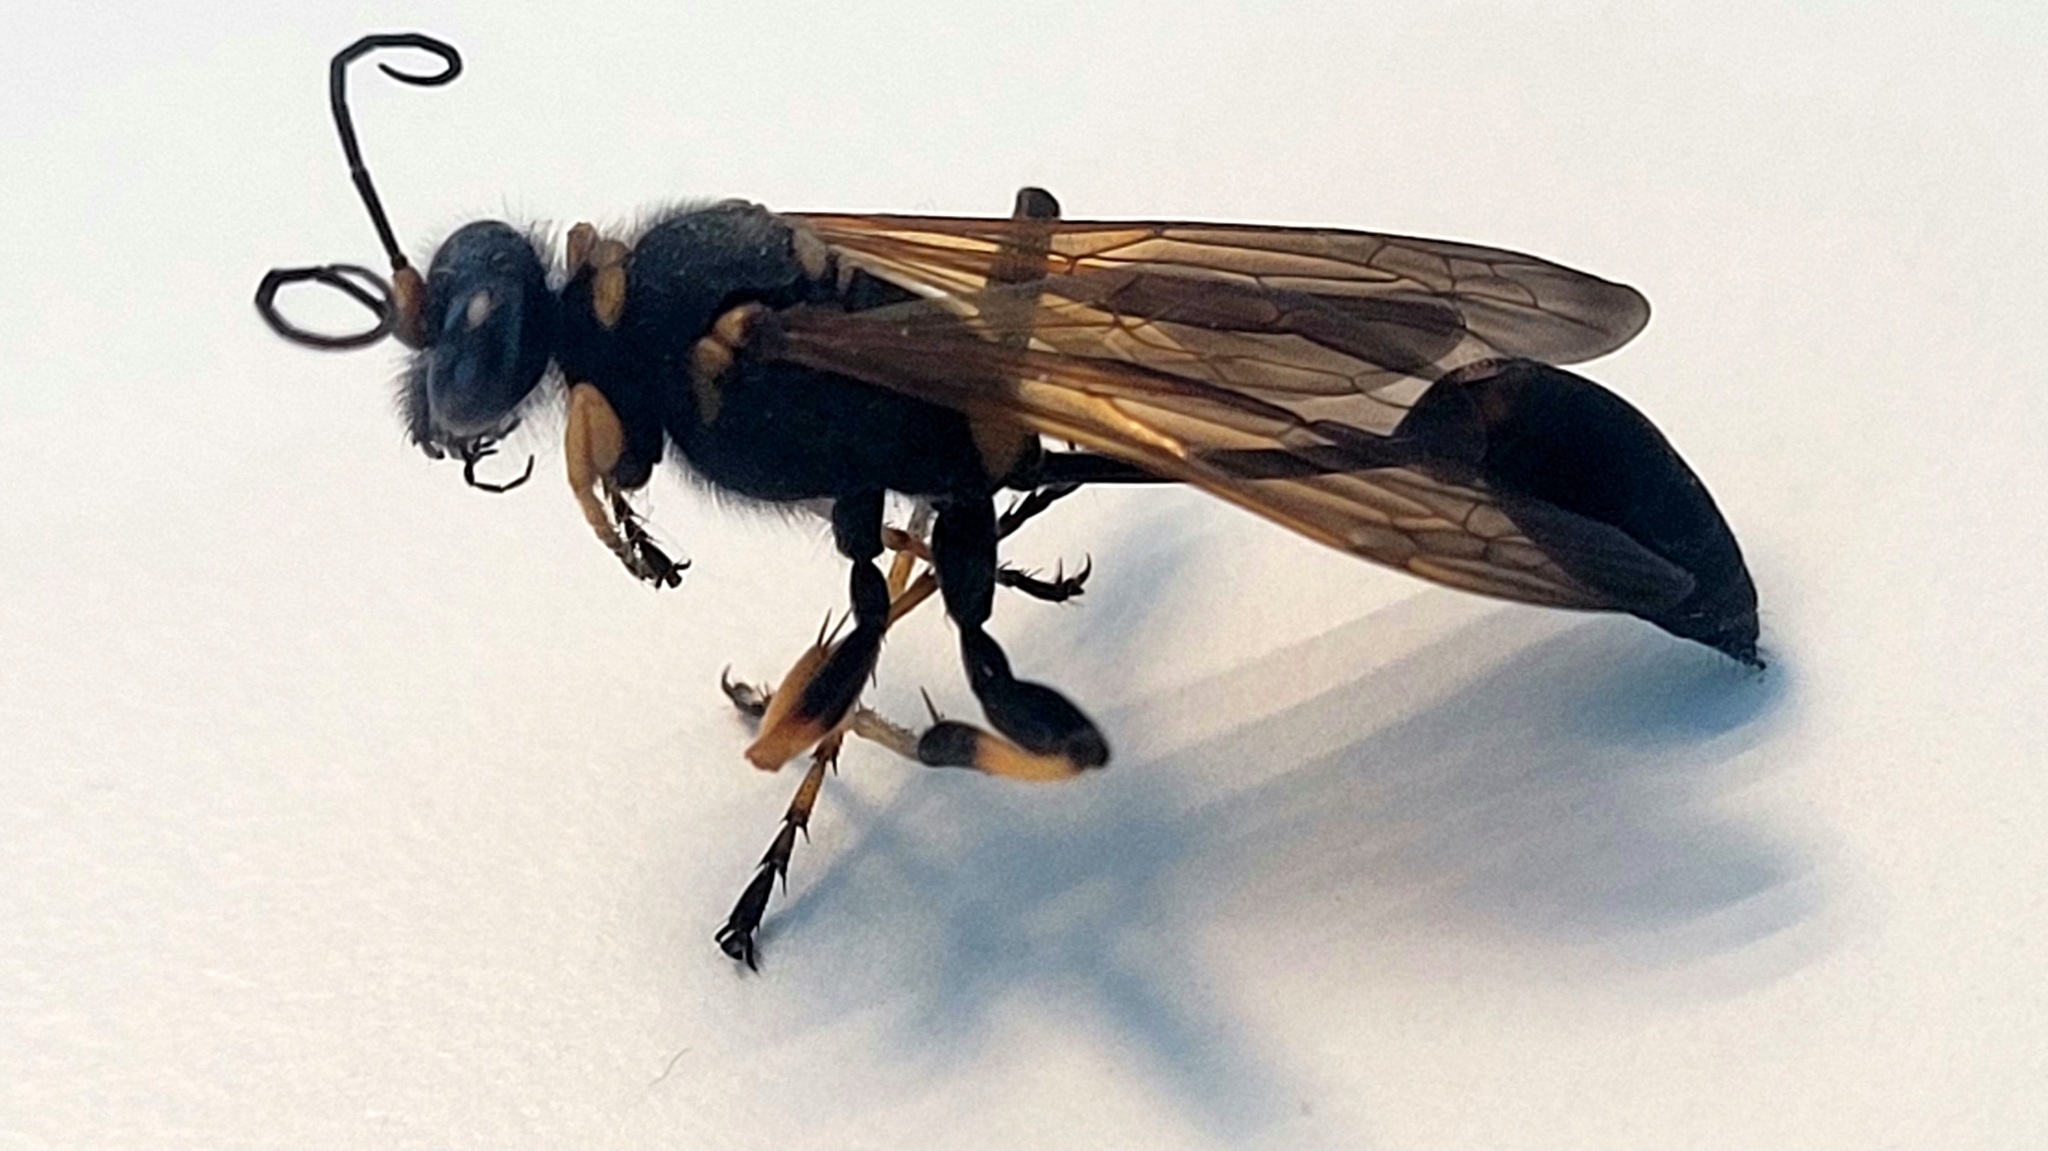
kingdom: Animalia
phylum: Arthropoda
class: Insecta
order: Hymenoptera
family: Sphecidae
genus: Sceliphron
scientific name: Sceliphron caementarium
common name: Mud dauber
